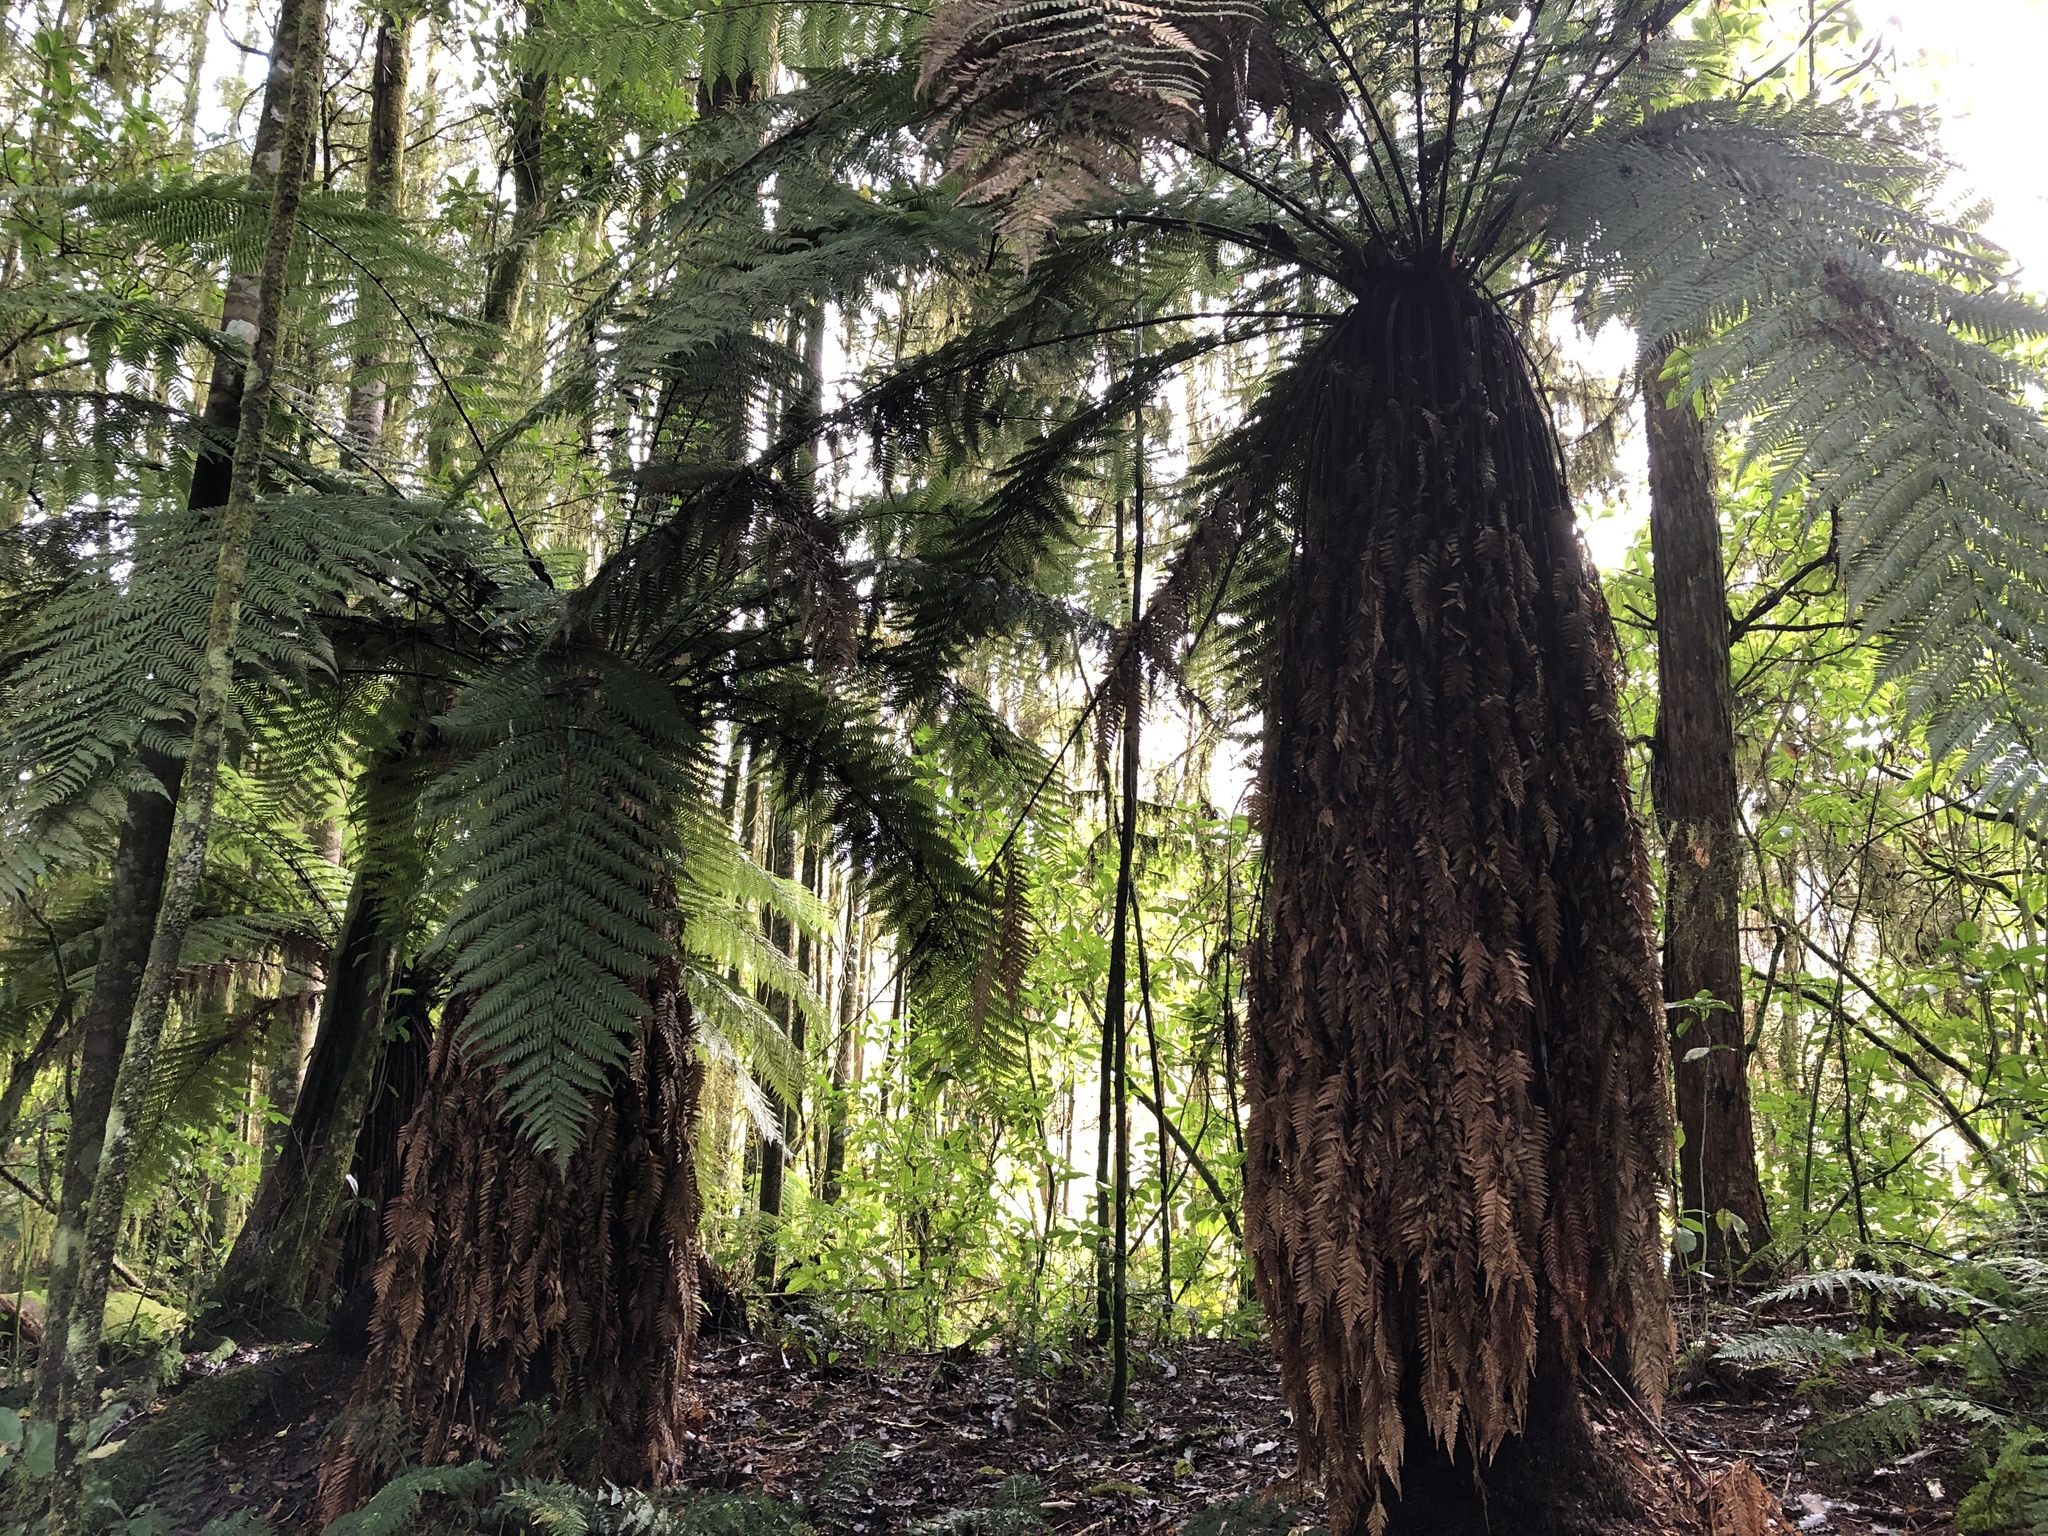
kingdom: Plantae
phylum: Tracheophyta
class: Polypodiopsida
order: Cyatheales
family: Dicksoniaceae
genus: Dicksonia
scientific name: Dicksonia fibrosa
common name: Golden tree fern
